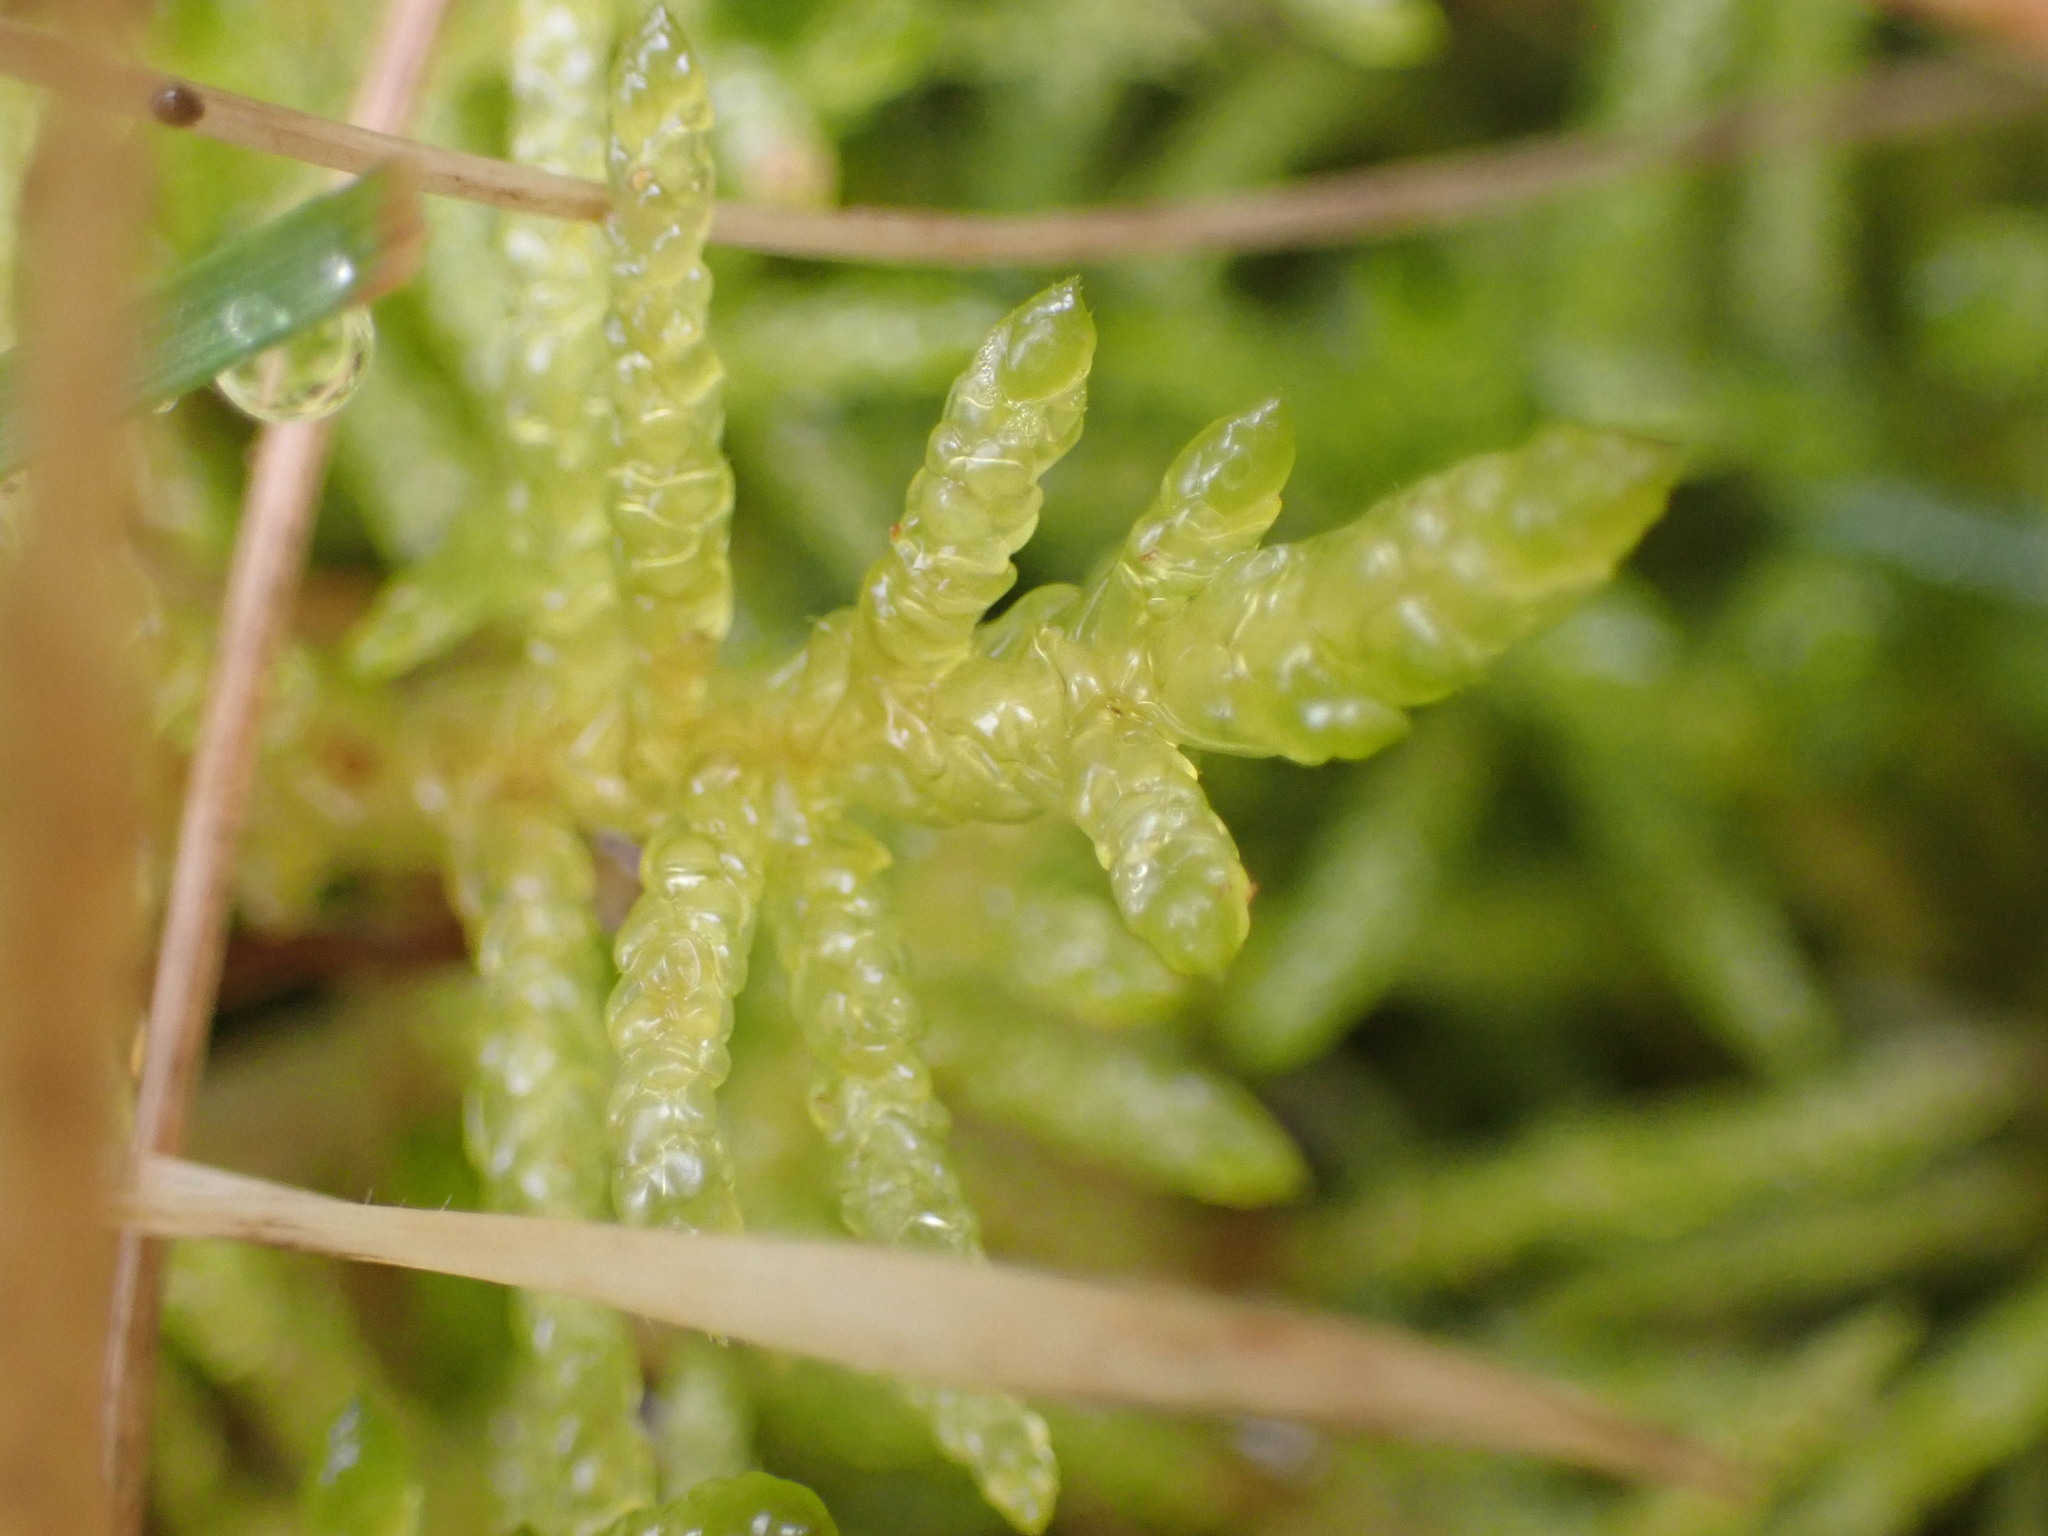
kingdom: Plantae
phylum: Bryophyta
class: Bryopsida
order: Hypnales
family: Brachytheciaceae
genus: Pseudoscleropodium
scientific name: Pseudoscleropodium purum
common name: Neat feather-moss
